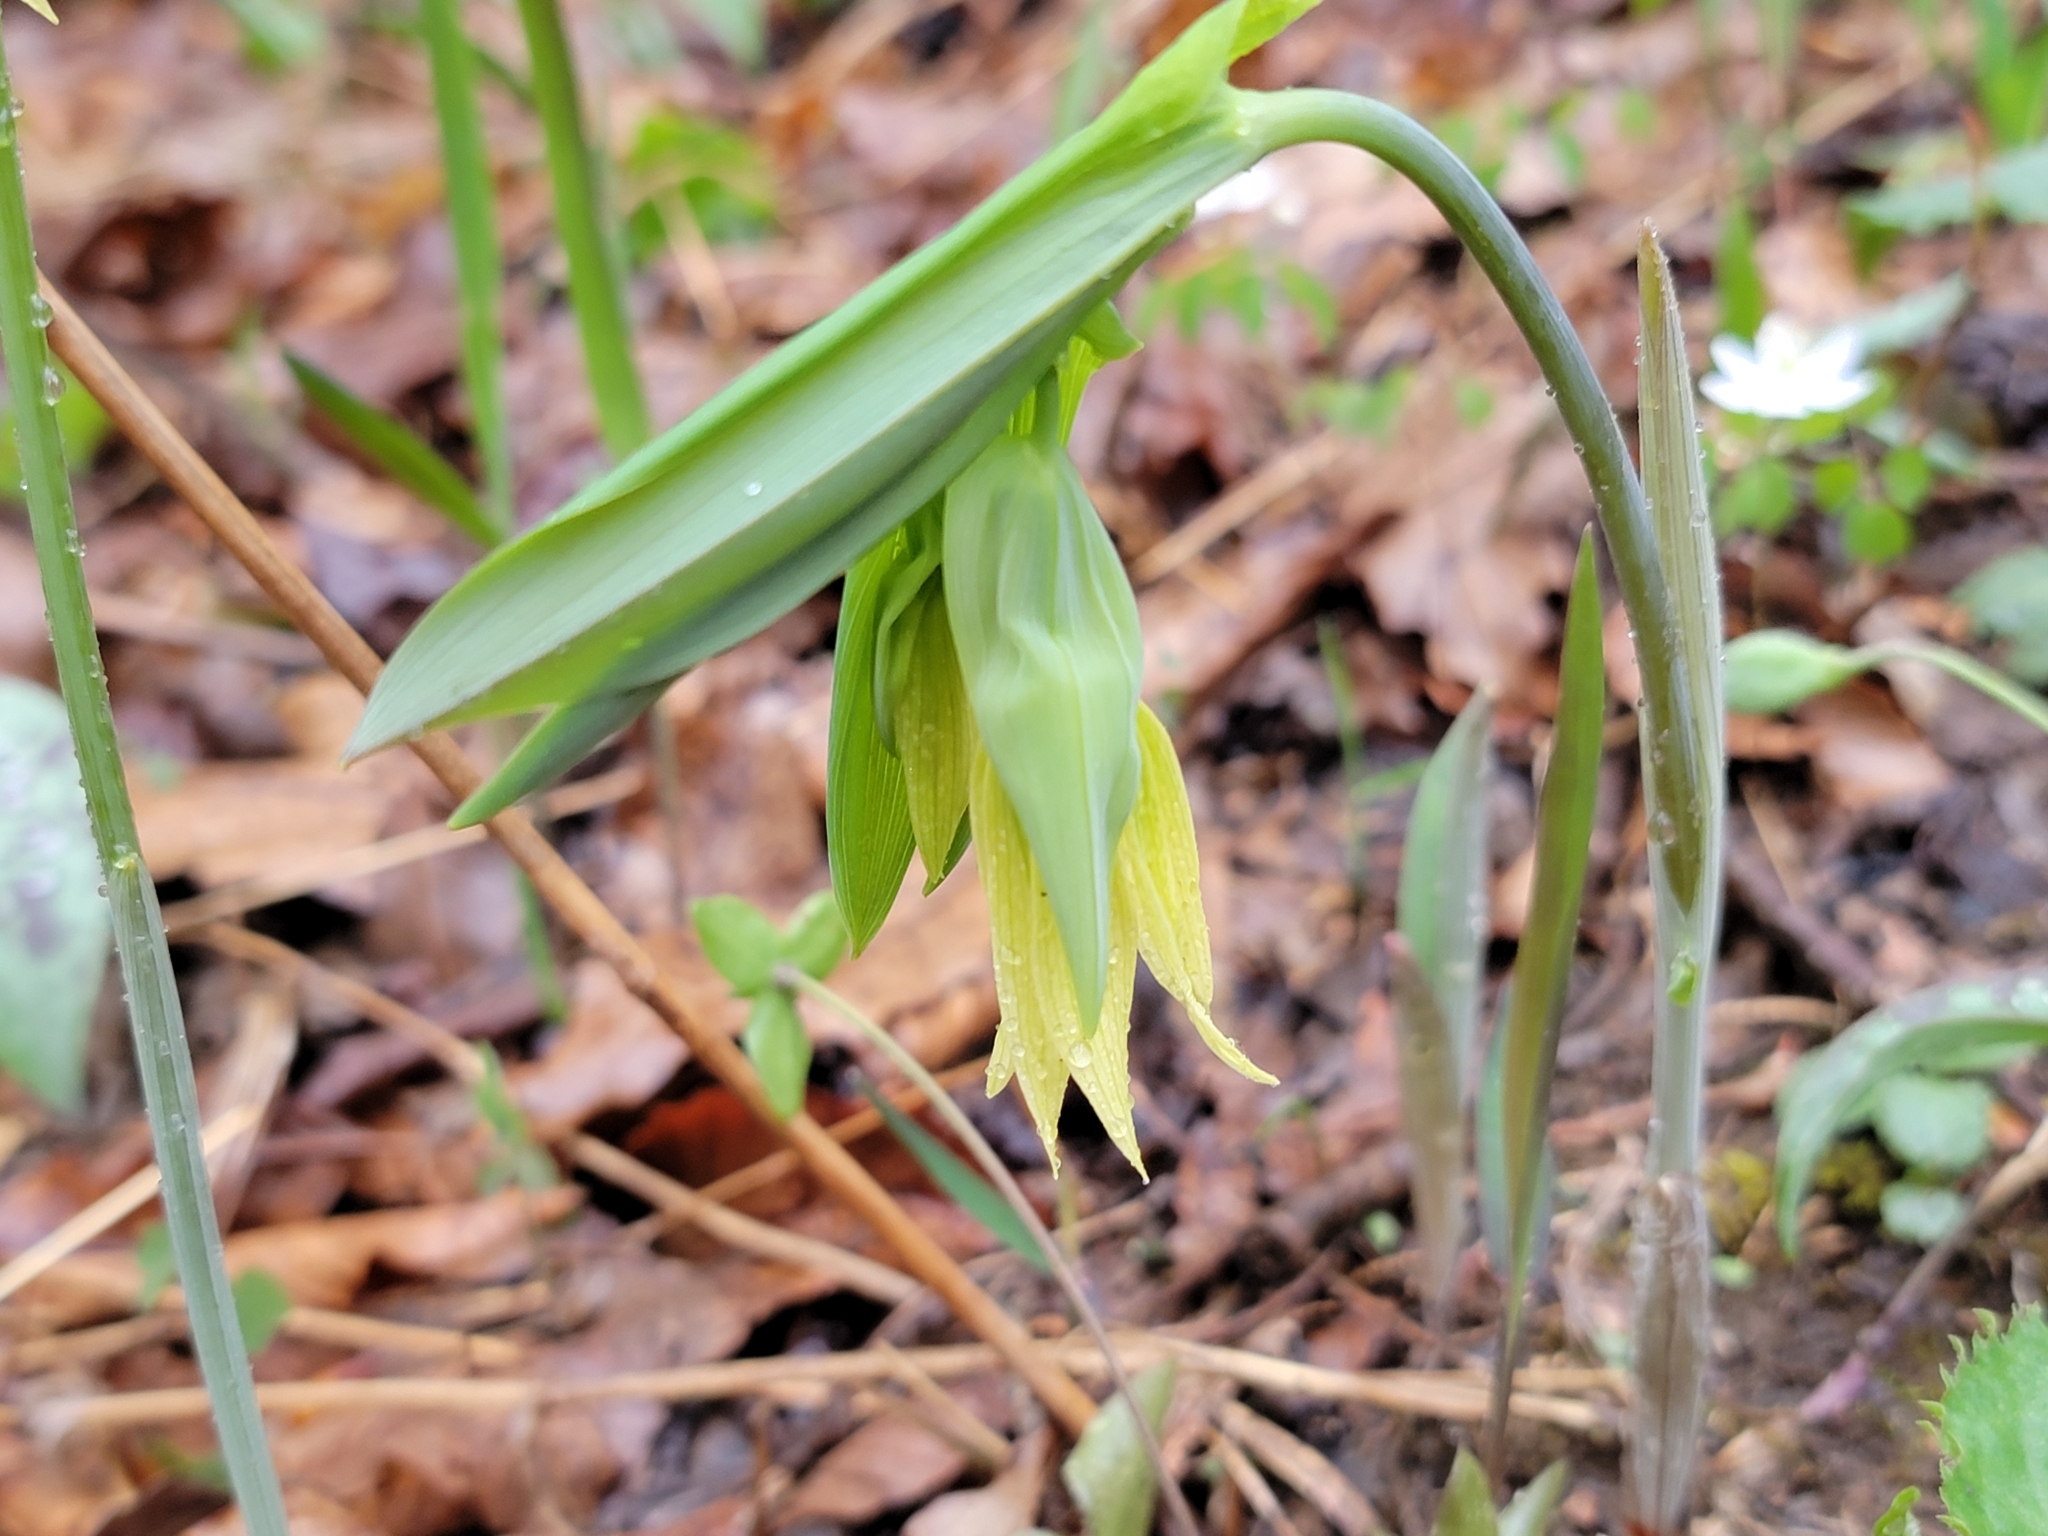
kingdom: Plantae
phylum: Tracheophyta
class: Liliopsida
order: Liliales
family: Colchicaceae
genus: Uvularia
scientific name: Uvularia grandiflora
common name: Bellwort
